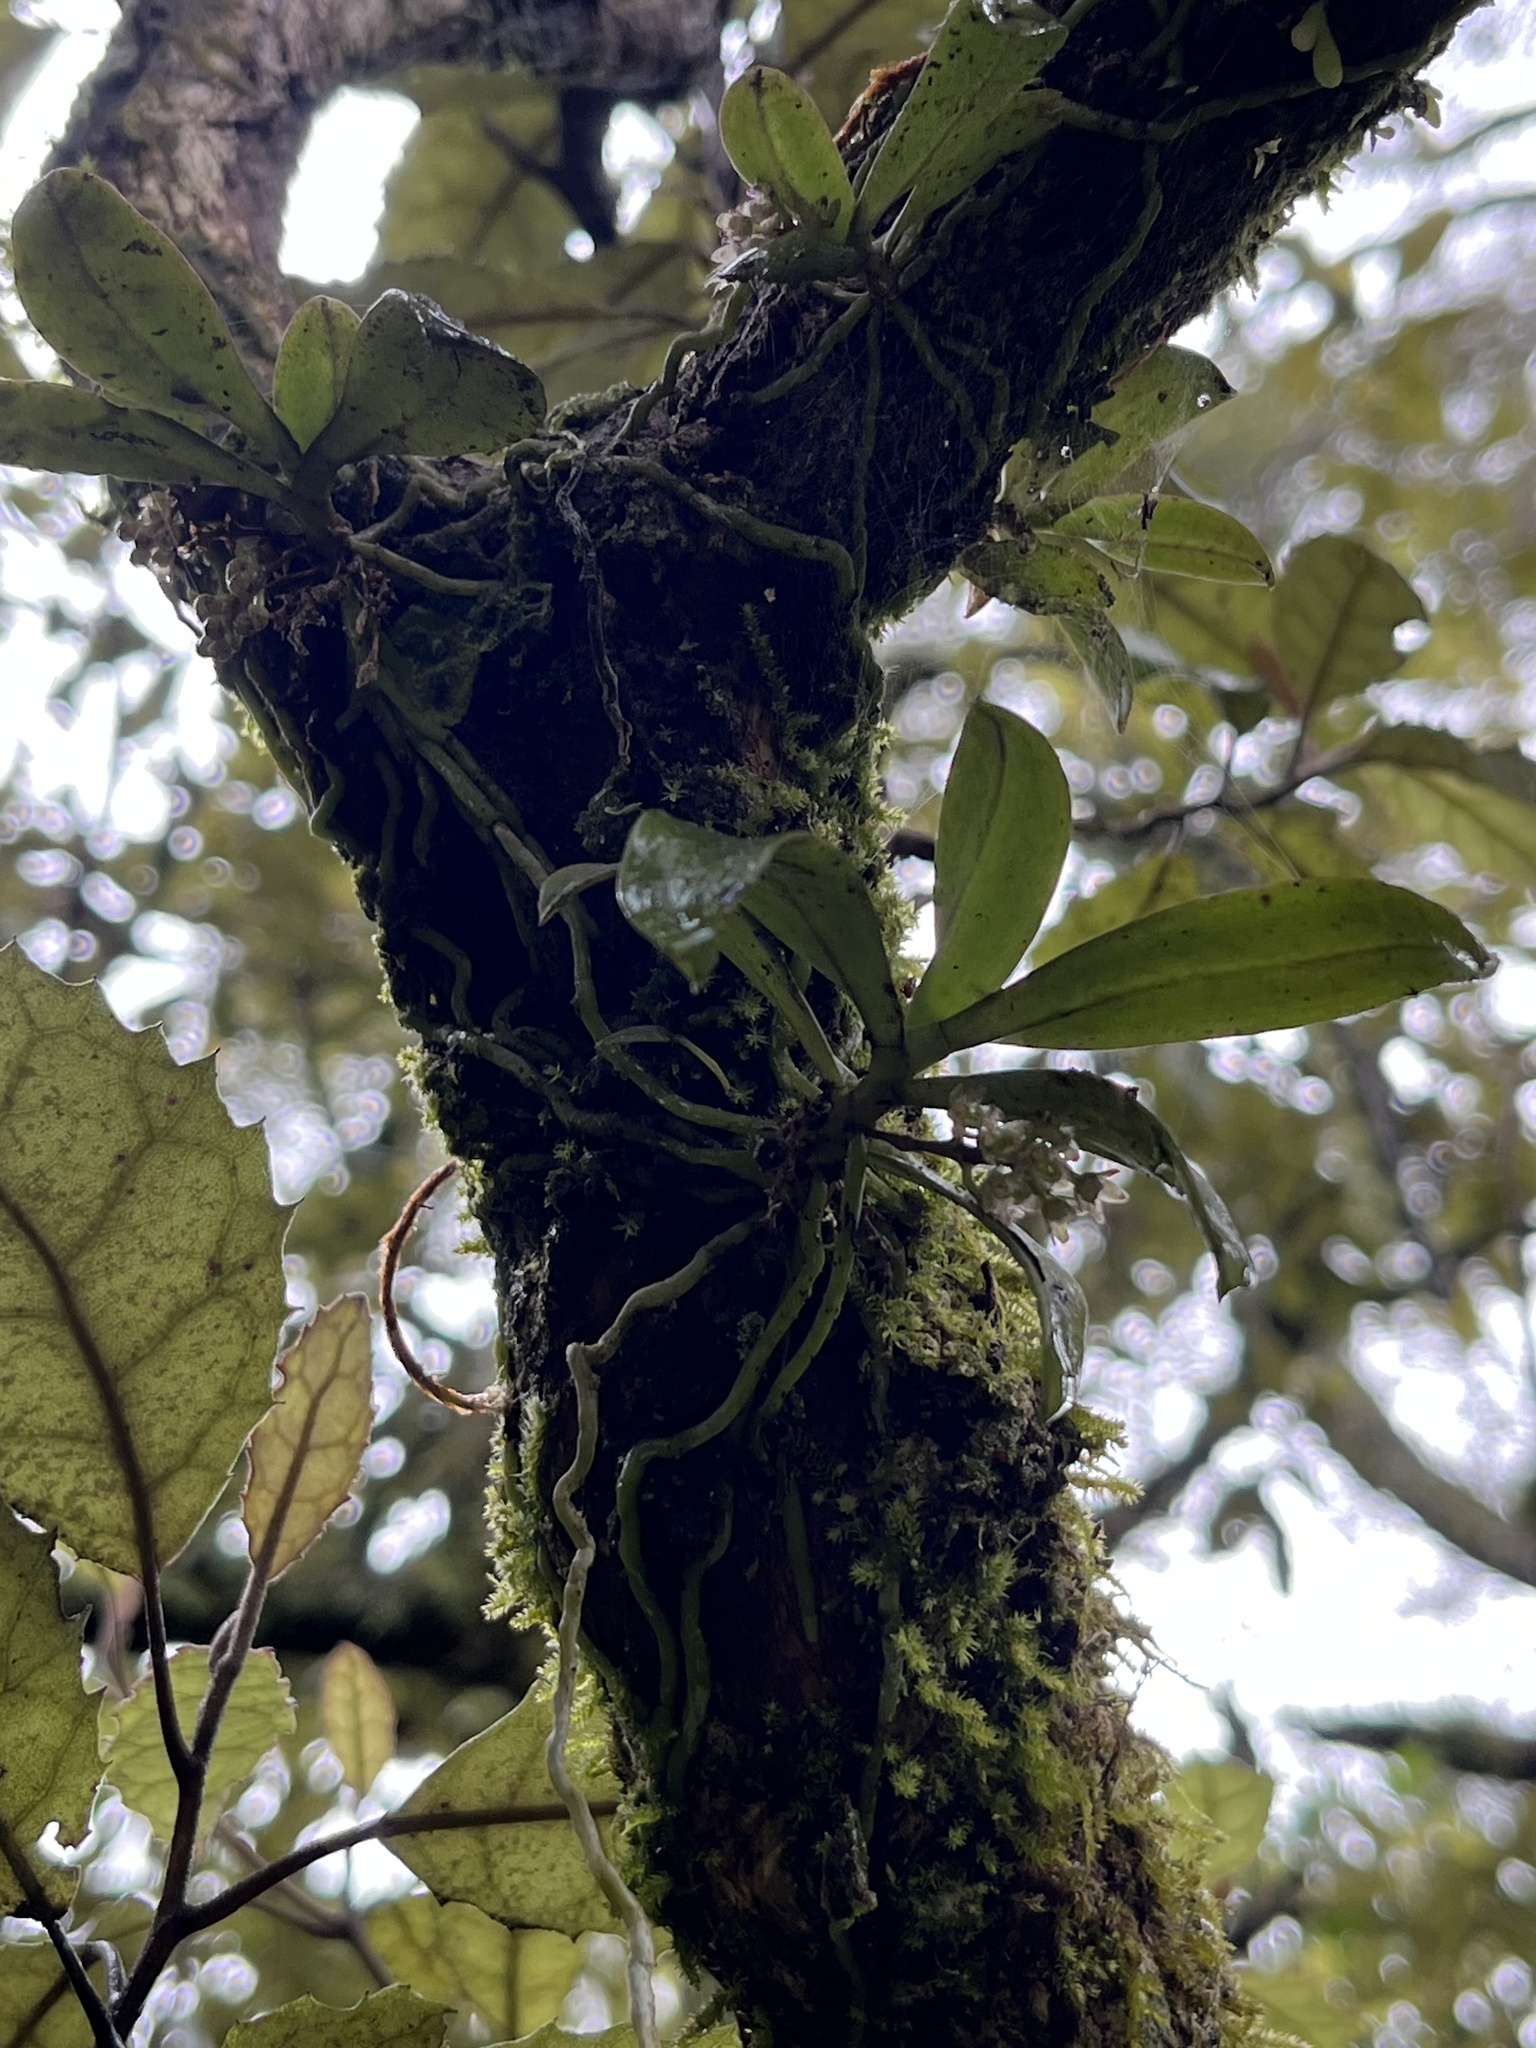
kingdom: Plantae
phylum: Tracheophyta
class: Liliopsida
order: Asparagales
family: Orchidaceae
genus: Drymoanthus
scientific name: Drymoanthus adversus
